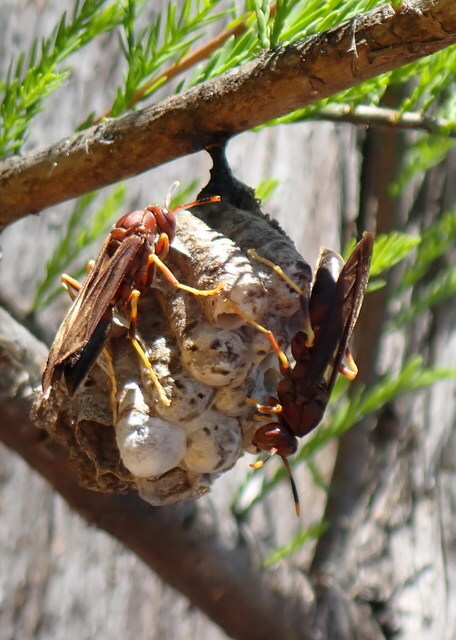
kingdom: Animalia
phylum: Arthropoda
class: Insecta
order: Hymenoptera
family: Eumenidae
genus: Polistes
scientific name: Polistes annularis
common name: Ringed paper wasp
